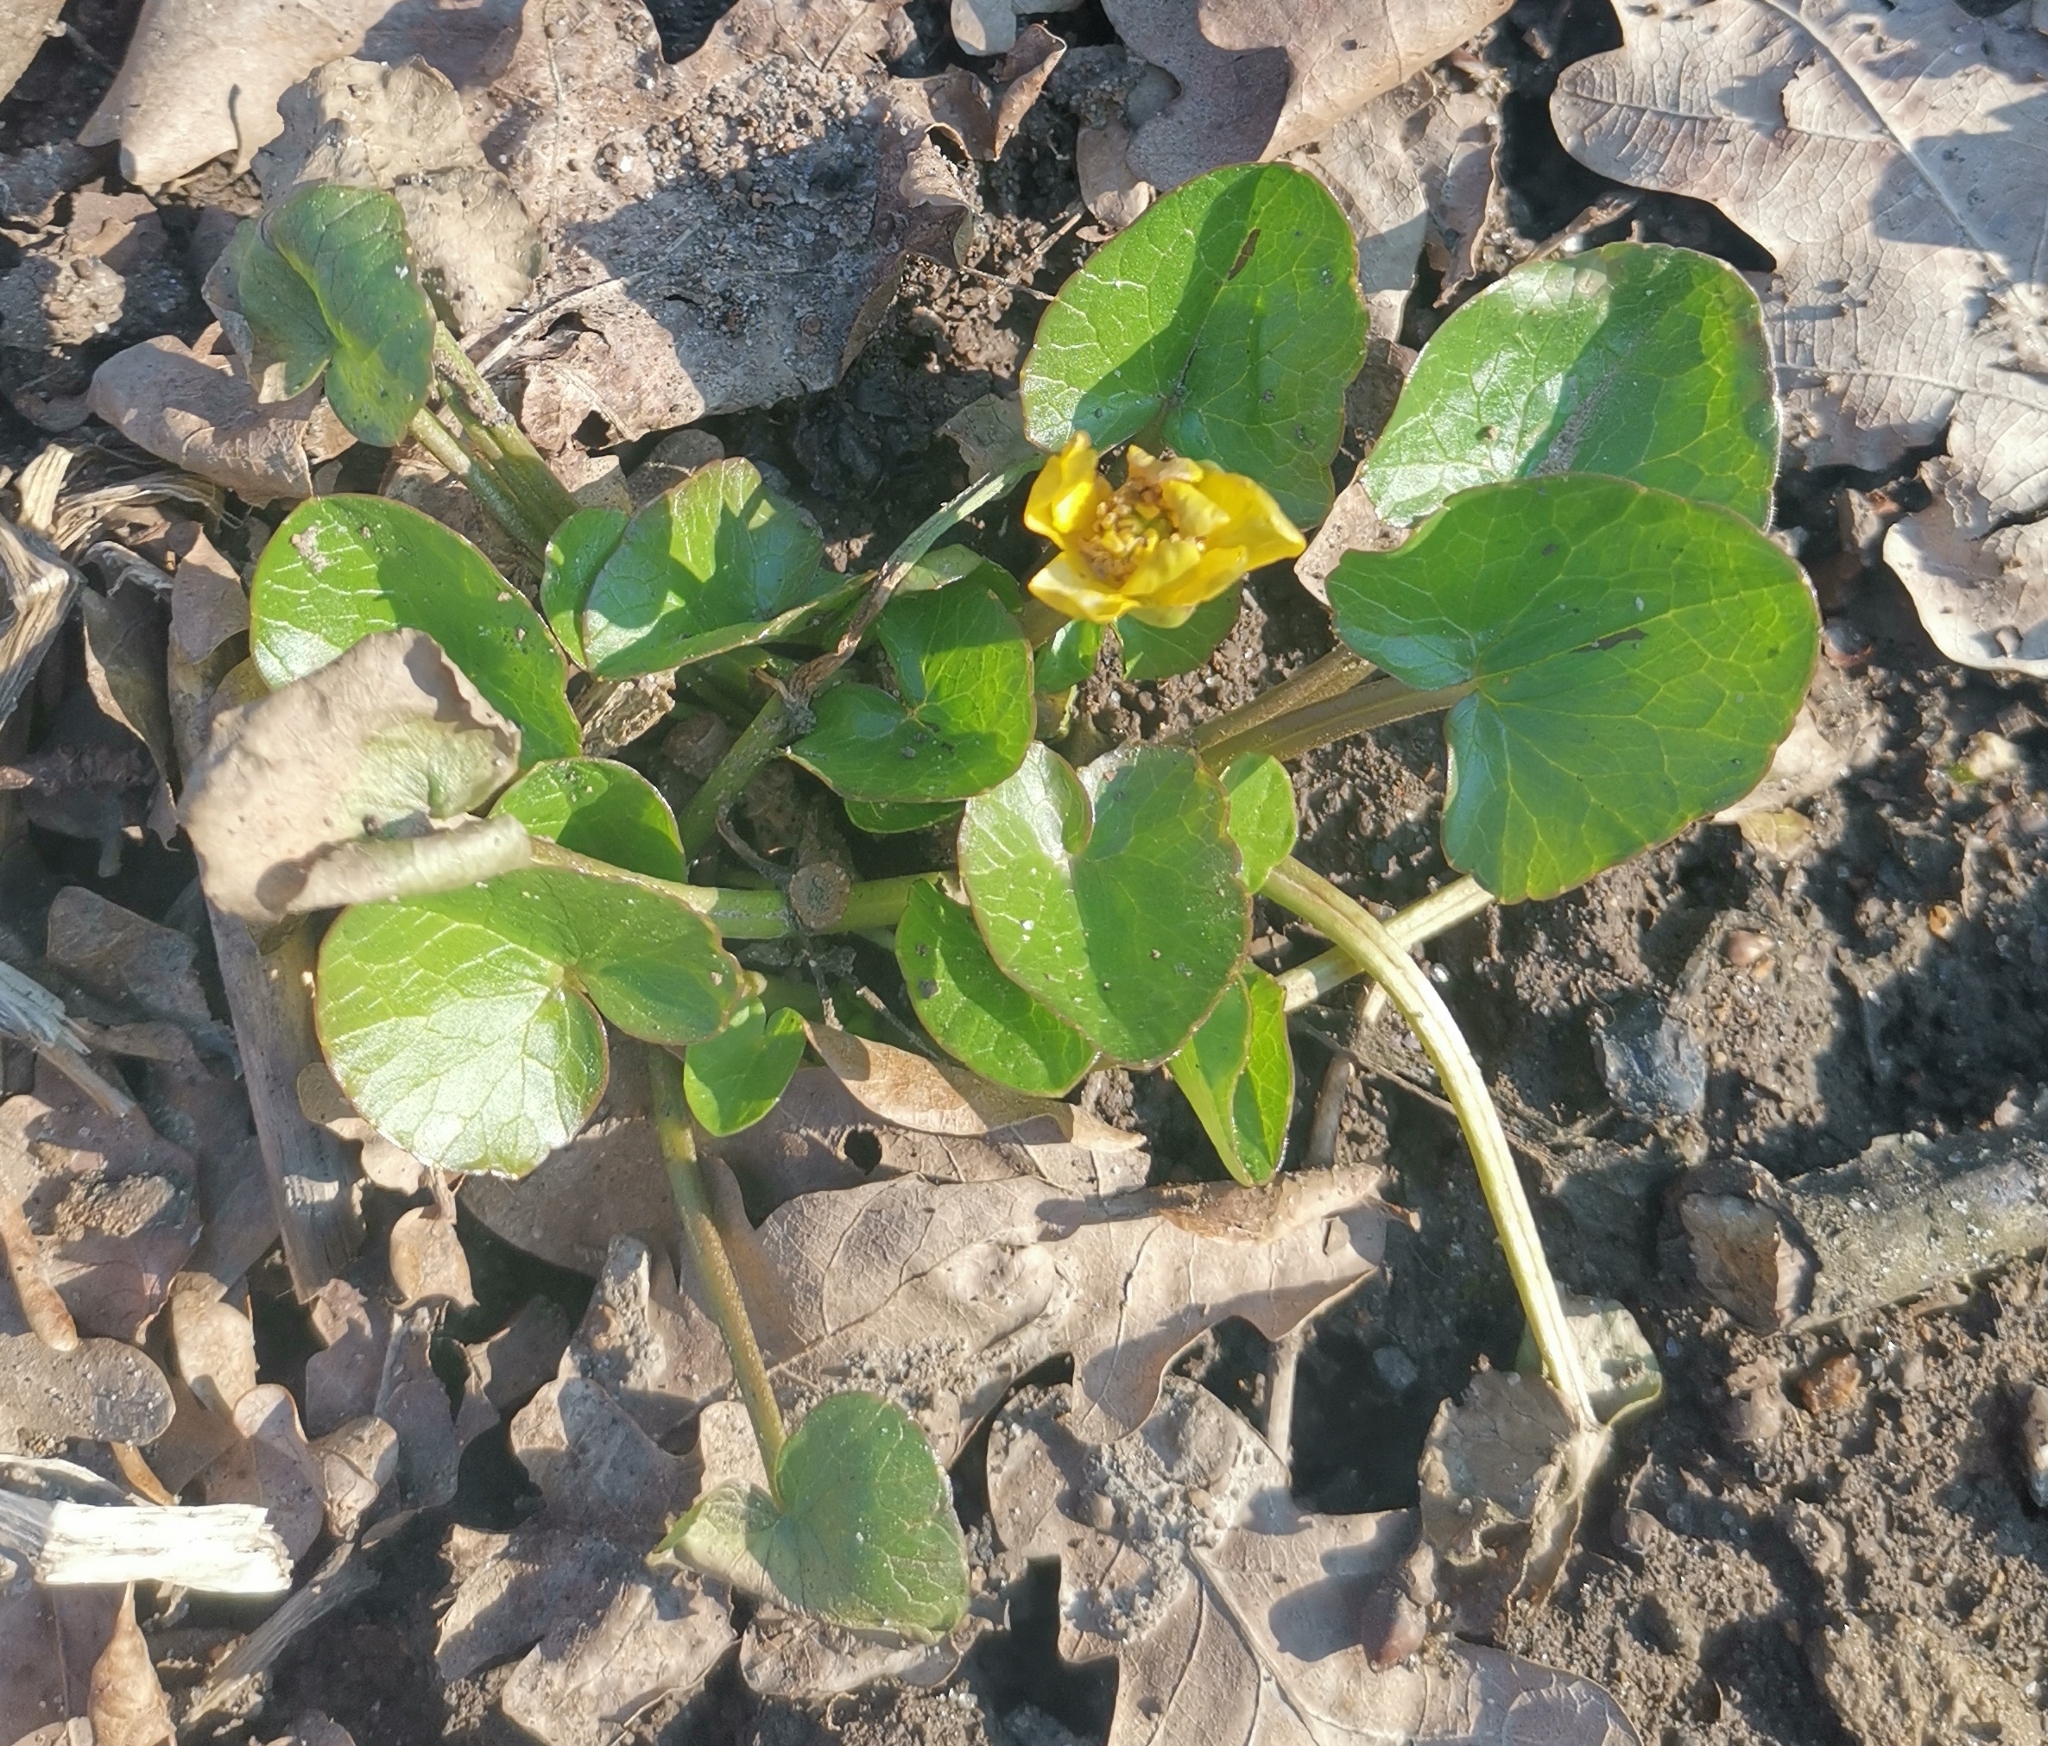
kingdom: Plantae
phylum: Tracheophyta
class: Magnoliopsida
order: Ranunculales
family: Ranunculaceae
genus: Ficaria
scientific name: Ficaria verna
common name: Lesser celandine
